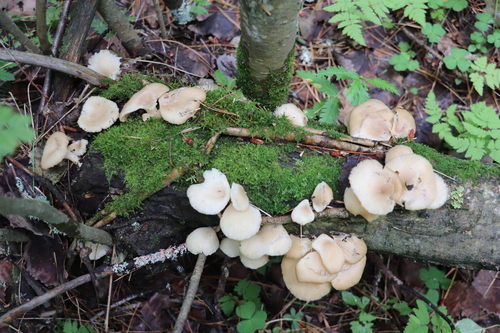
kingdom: Fungi
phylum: Basidiomycota
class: Agaricomycetes
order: Agaricales
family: Pleurotaceae
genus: Pleurotus
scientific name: Pleurotus pulmonarius
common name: Pale oyster
